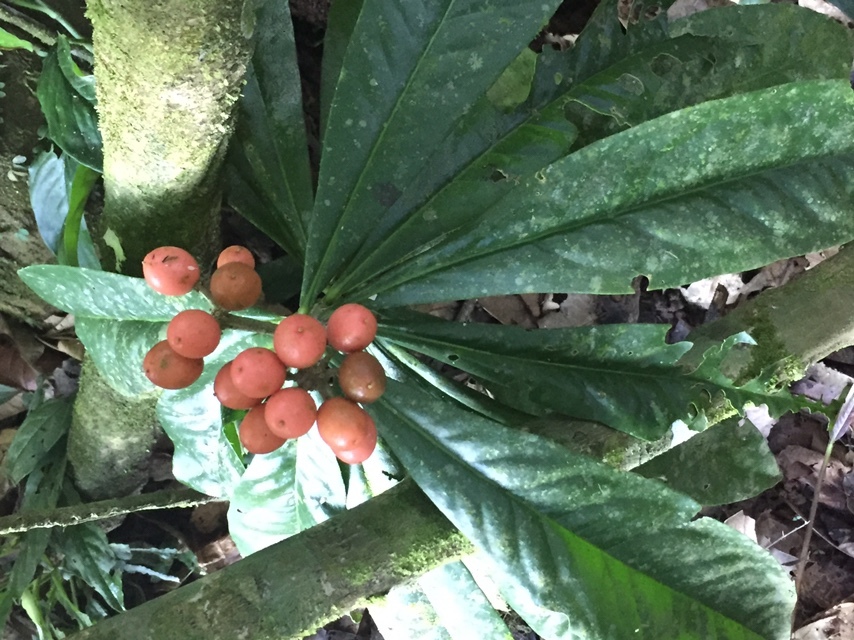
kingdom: Plantae
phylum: Tracheophyta
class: Magnoliopsida
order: Malvales
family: Thymelaeaceae
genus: Schoenobiblus
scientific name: Schoenobiblus daphnoides
